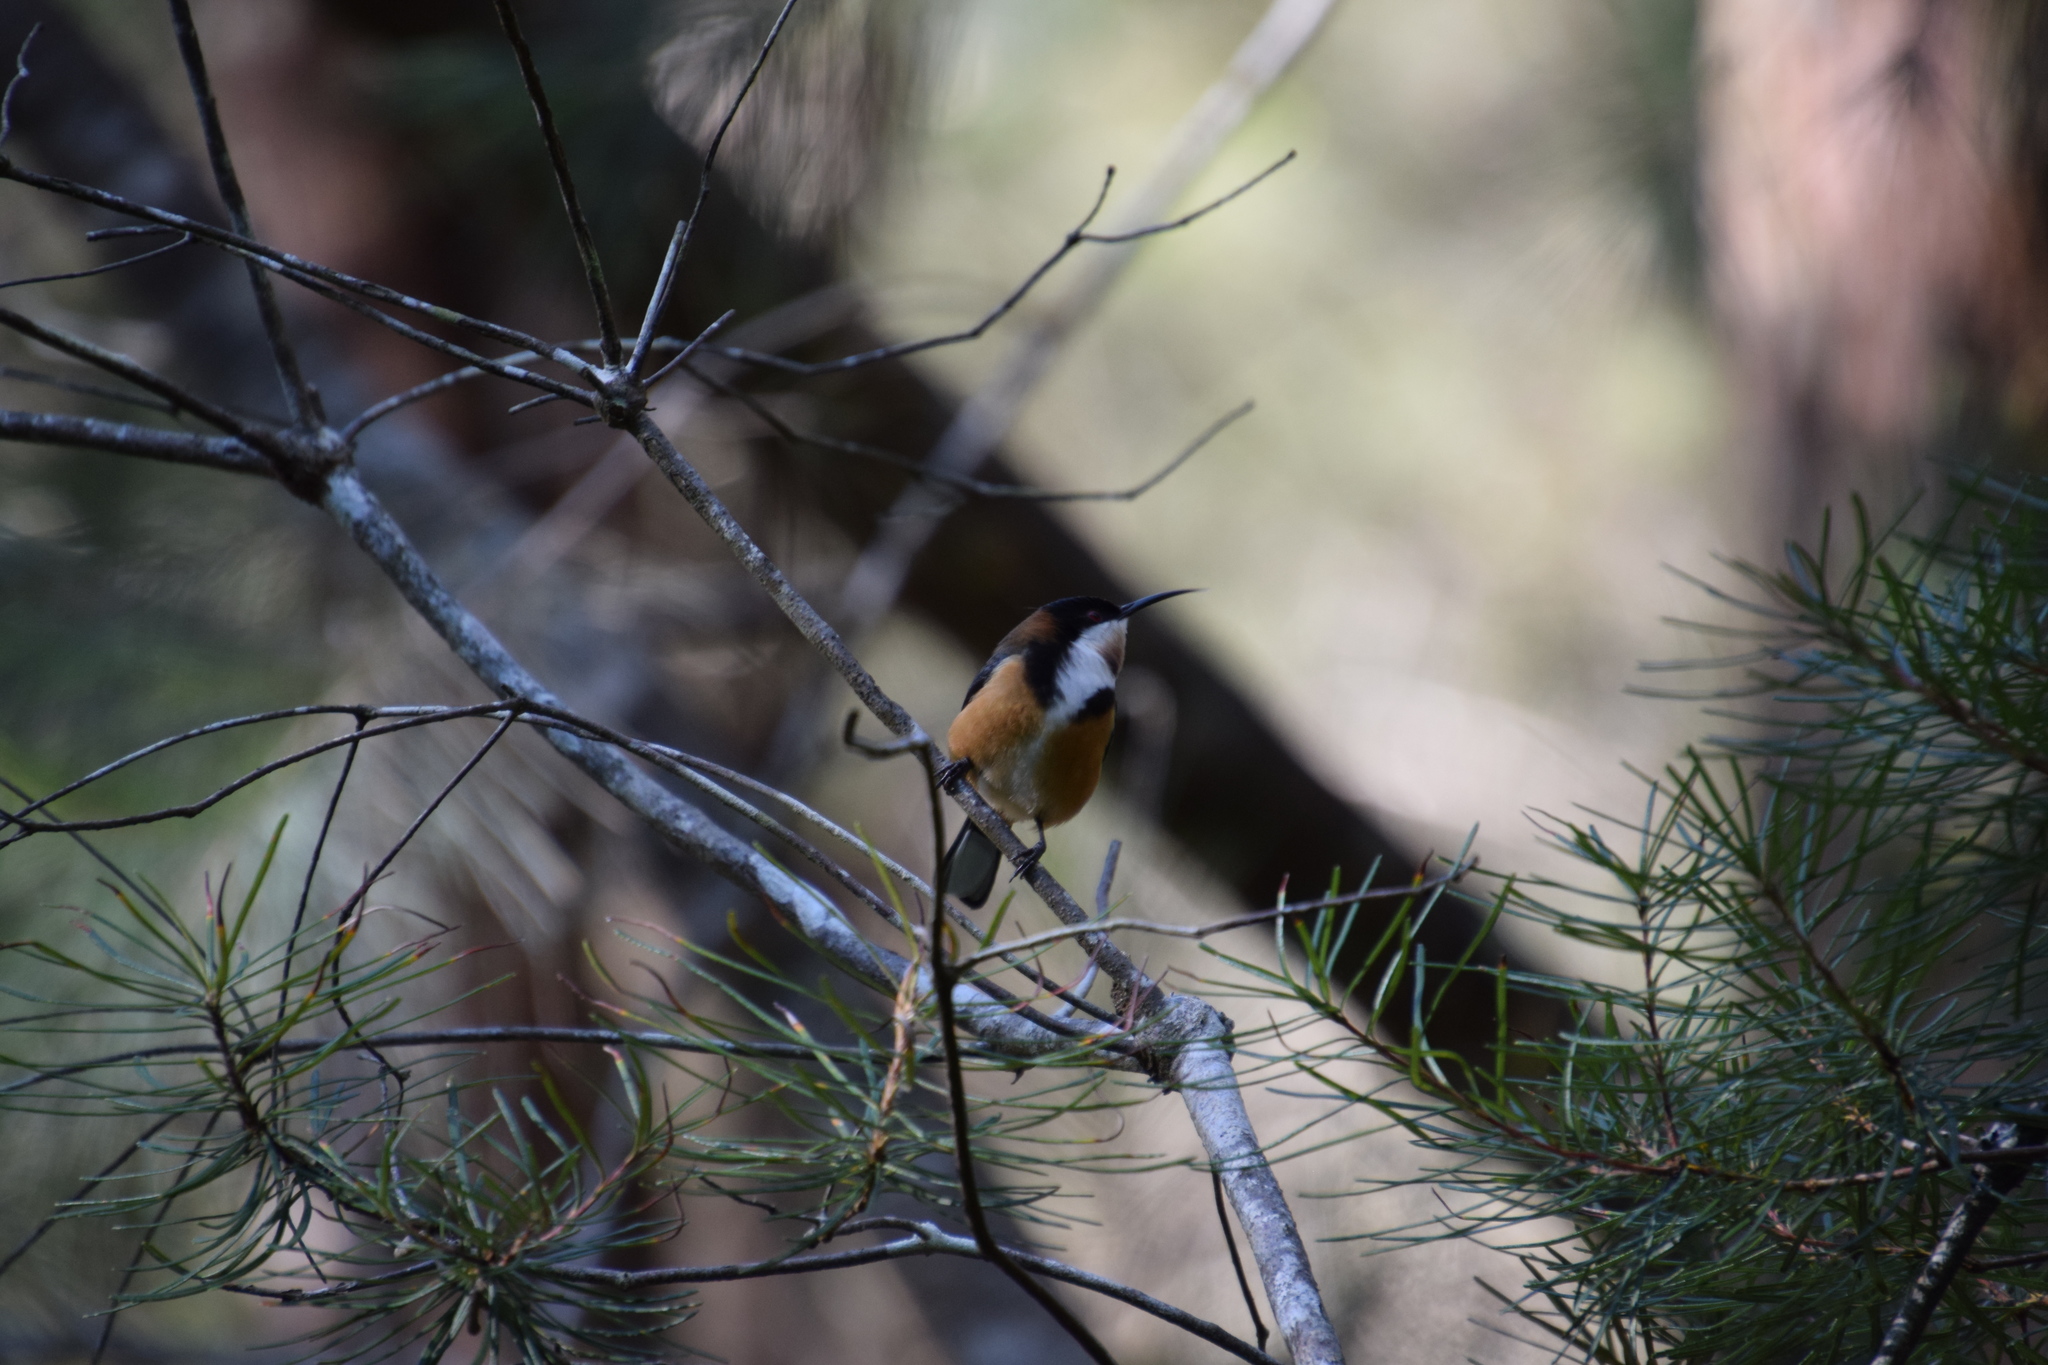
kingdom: Animalia
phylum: Chordata
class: Aves
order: Passeriformes
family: Meliphagidae
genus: Acanthorhynchus
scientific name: Acanthorhynchus tenuirostris
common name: Eastern spinebill
